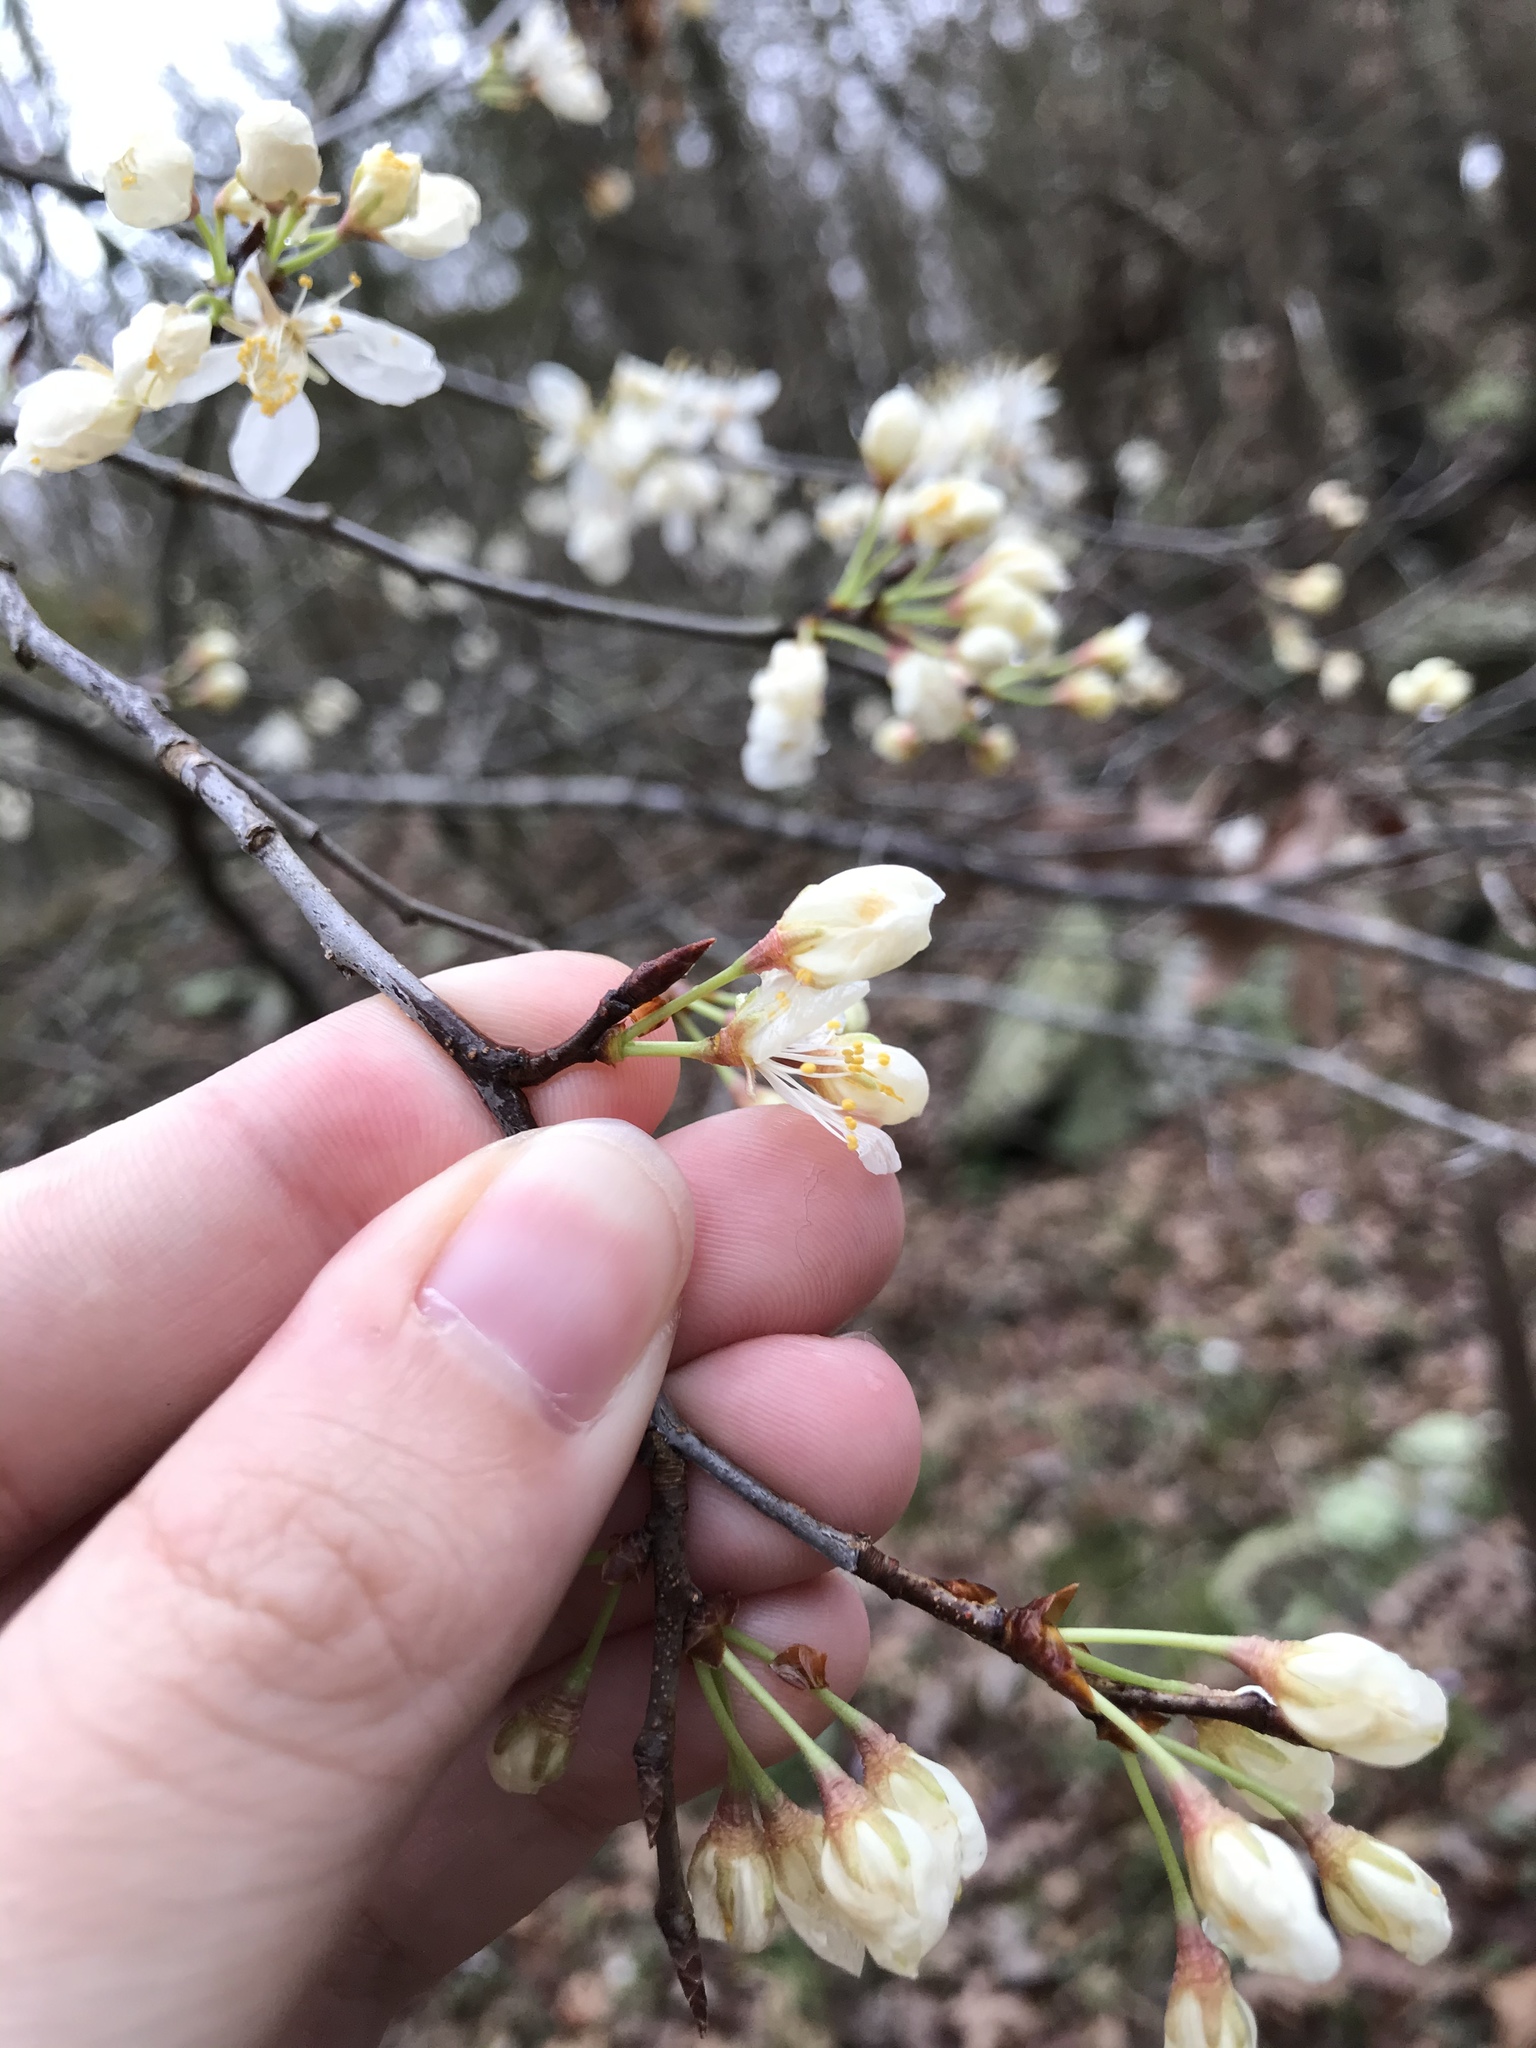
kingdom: Plantae
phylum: Tracheophyta
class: Magnoliopsida
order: Rosales
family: Rosaceae
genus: Prunus
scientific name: Prunus munsoniana
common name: Creek plum
